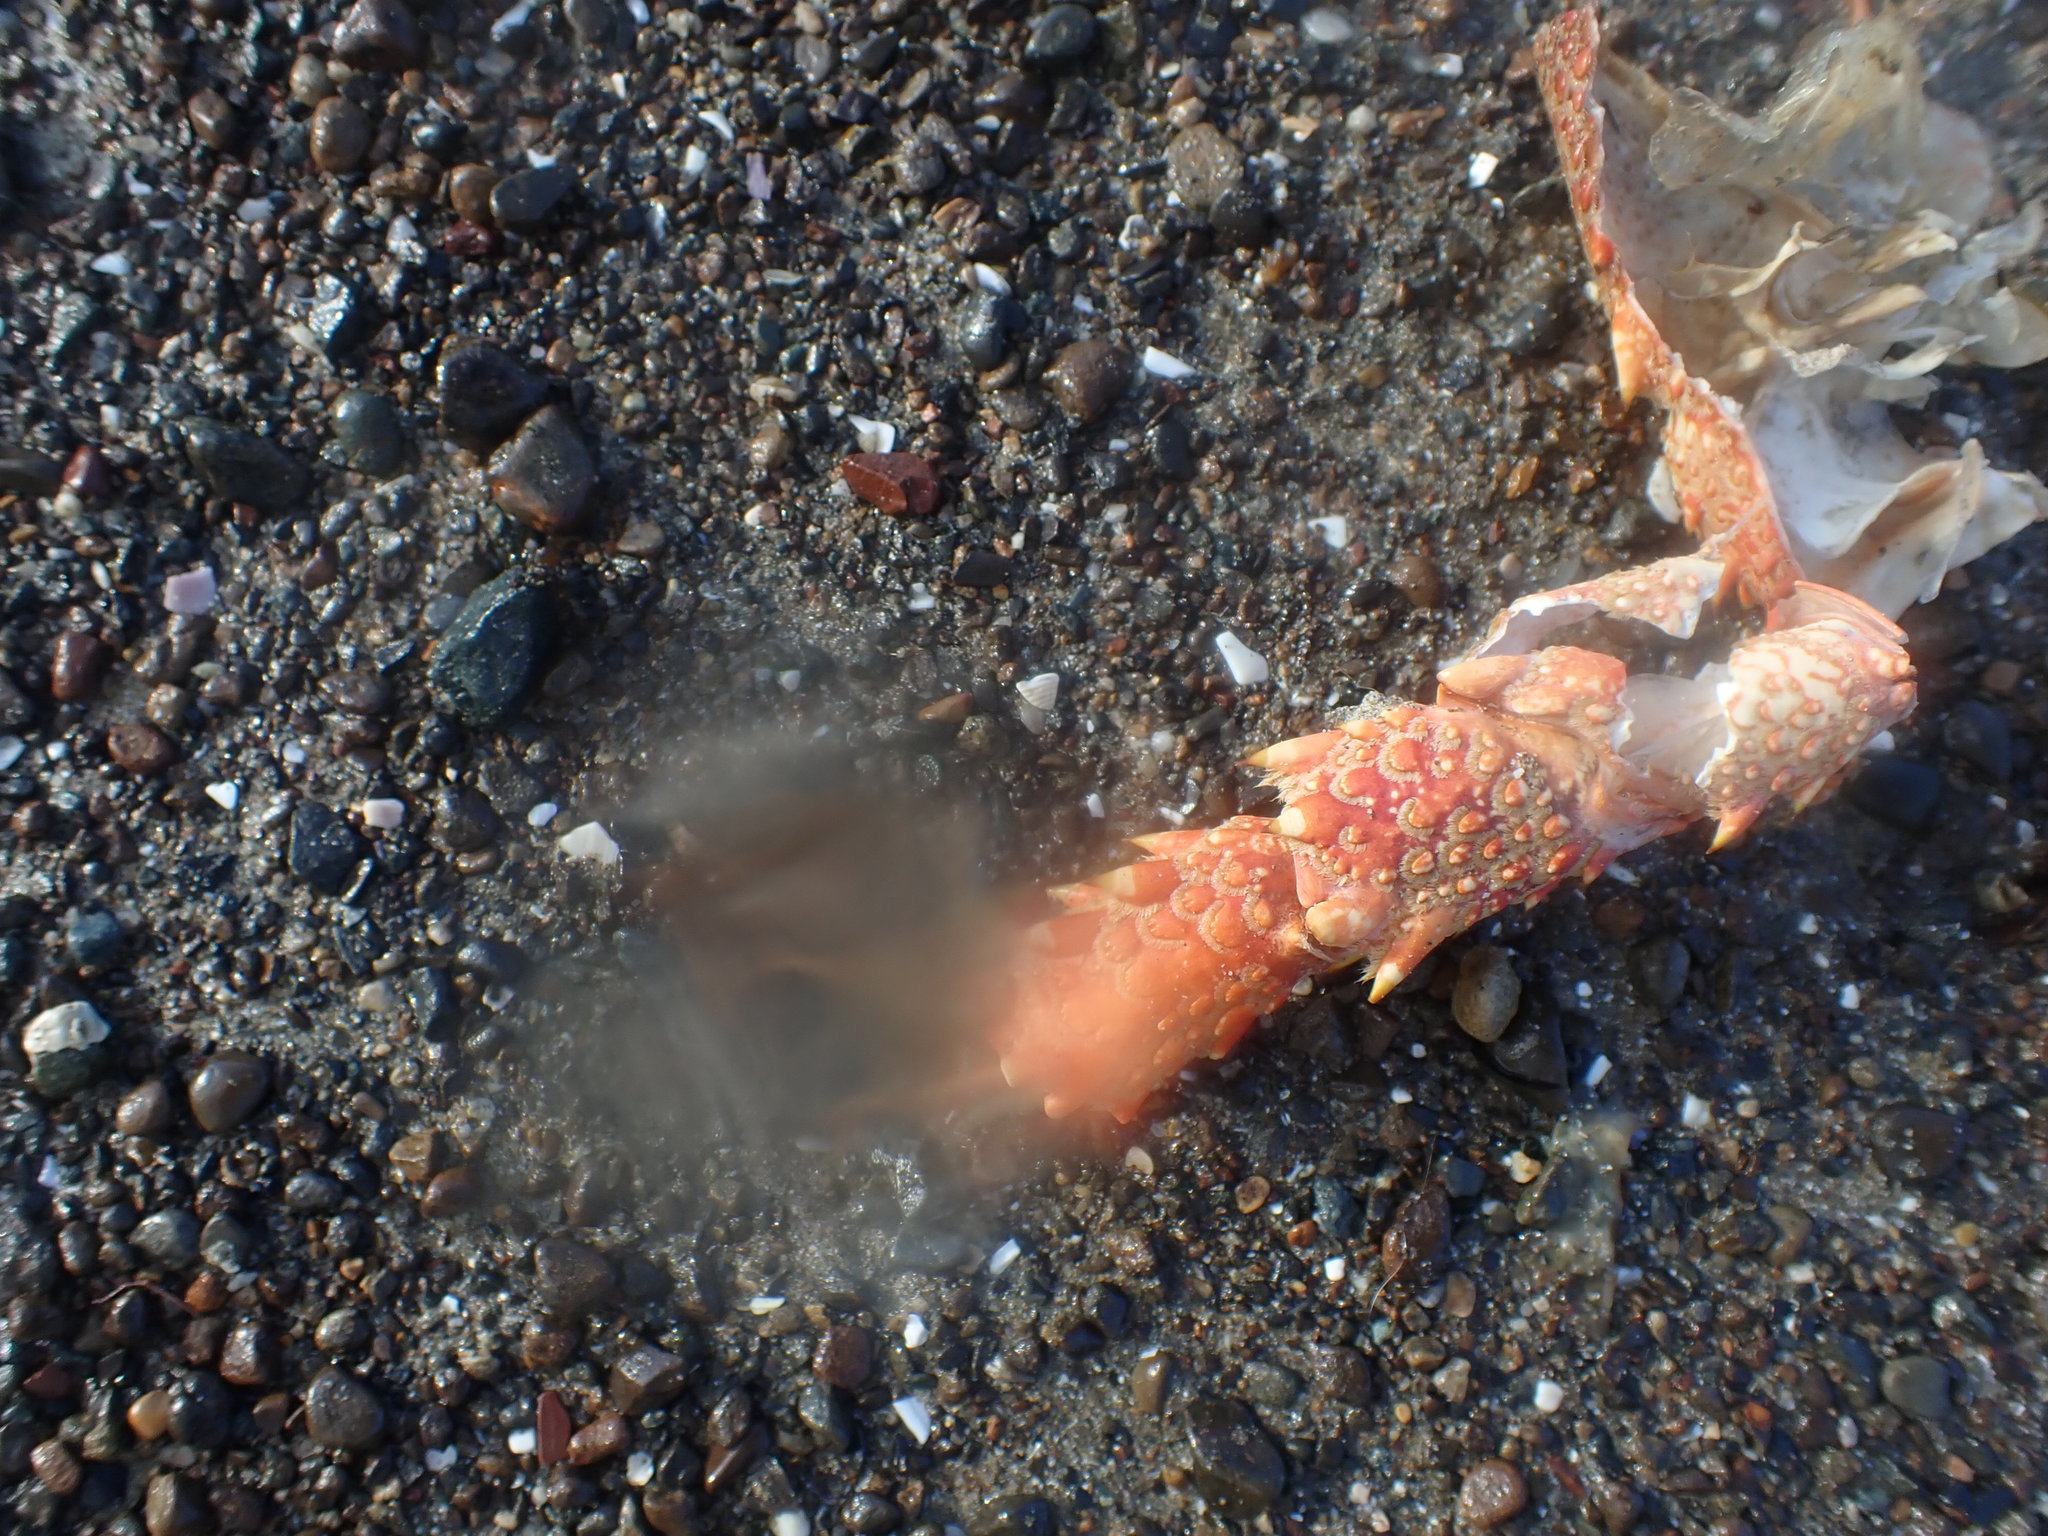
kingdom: Animalia
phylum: Arthropoda
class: Malacostraca
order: Decapoda
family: Palinuridae
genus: Jasus
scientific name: Jasus edwardsii
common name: Red rock lobster
